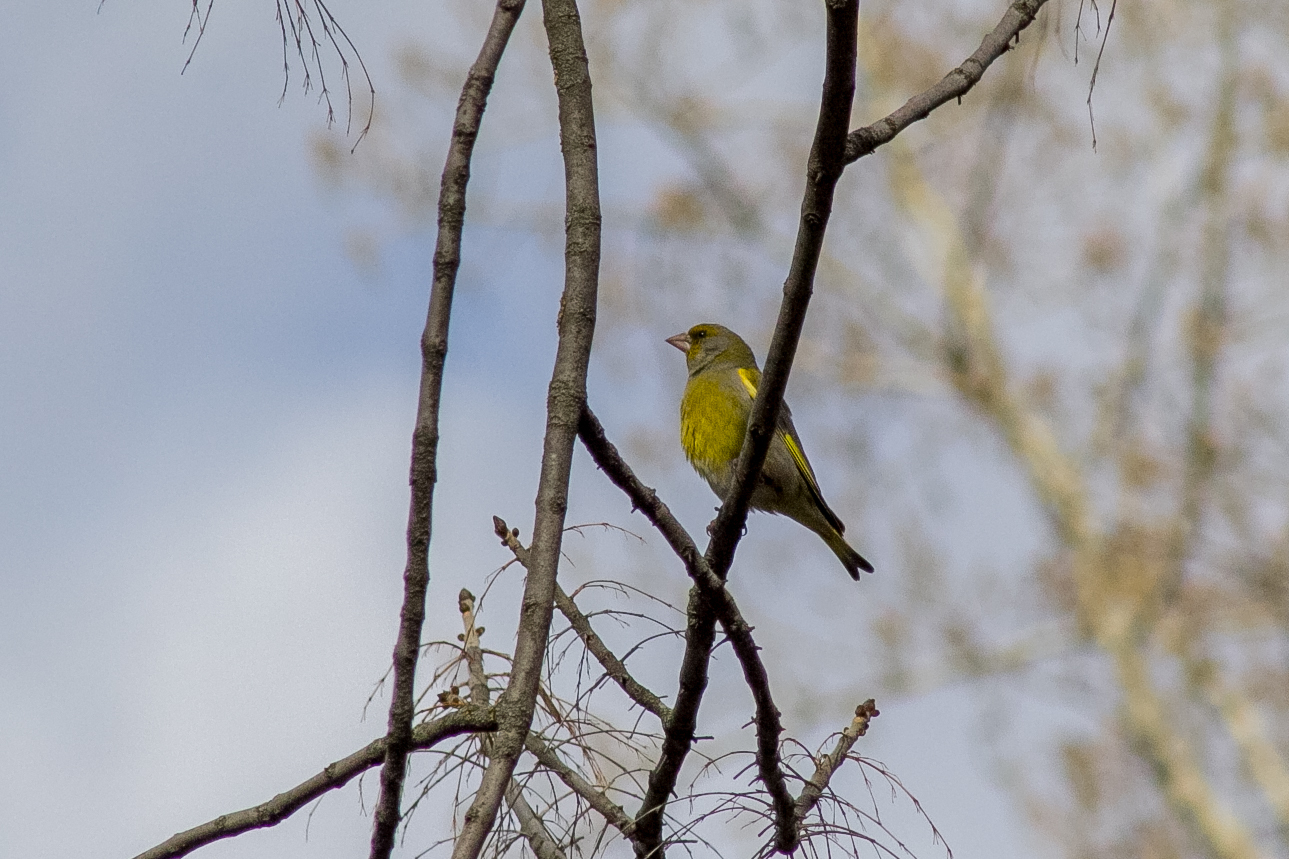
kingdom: Plantae
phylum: Tracheophyta
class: Liliopsida
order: Poales
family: Poaceae
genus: Chloris
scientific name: Chloris chloris
